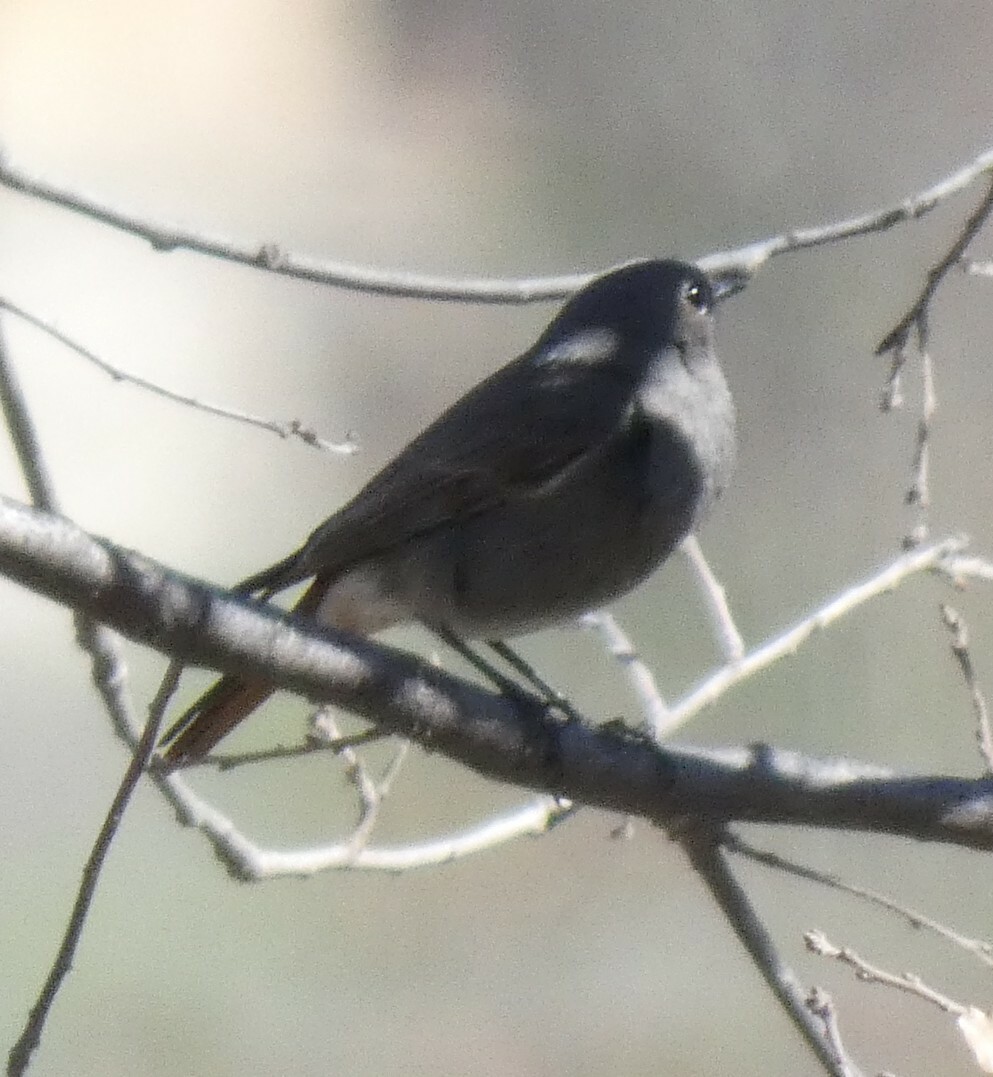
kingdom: Animalia
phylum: Chordata
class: Aves
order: Passeriformes
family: Muscicapidae
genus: Phoenicurus
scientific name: Phoenicurus ochruros
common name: Black redstart
